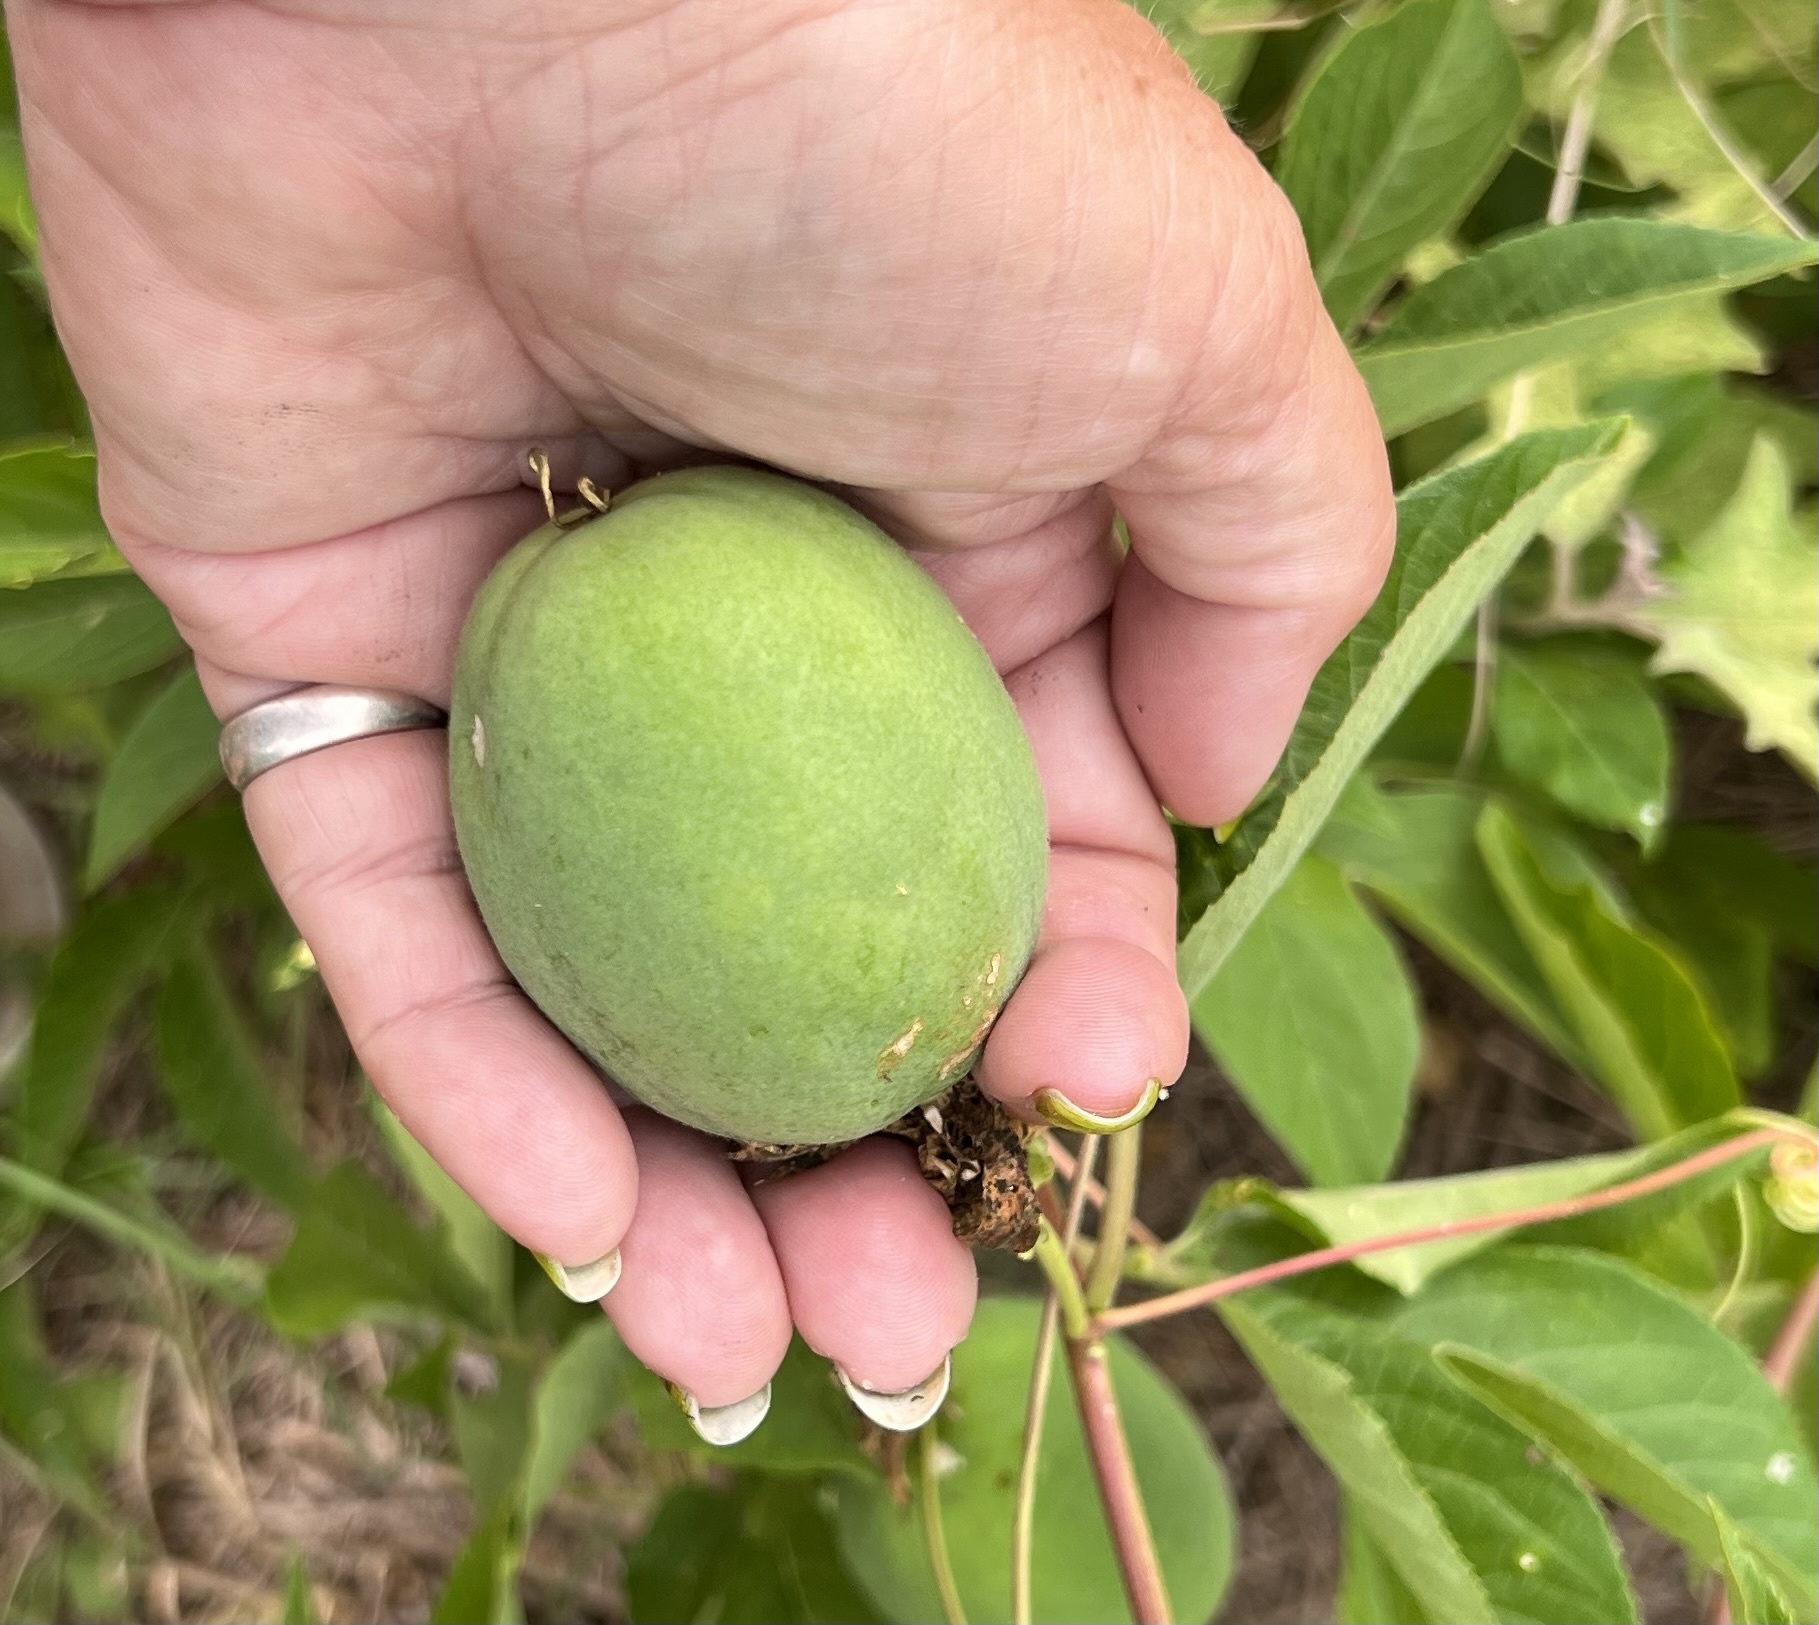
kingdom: Plantae
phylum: Tracheophyta
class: Magnoliopsida
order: Malpighiales
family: Passifloraceae
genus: Passiflora
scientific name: Passiflora incarnata
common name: Apricot-vine
